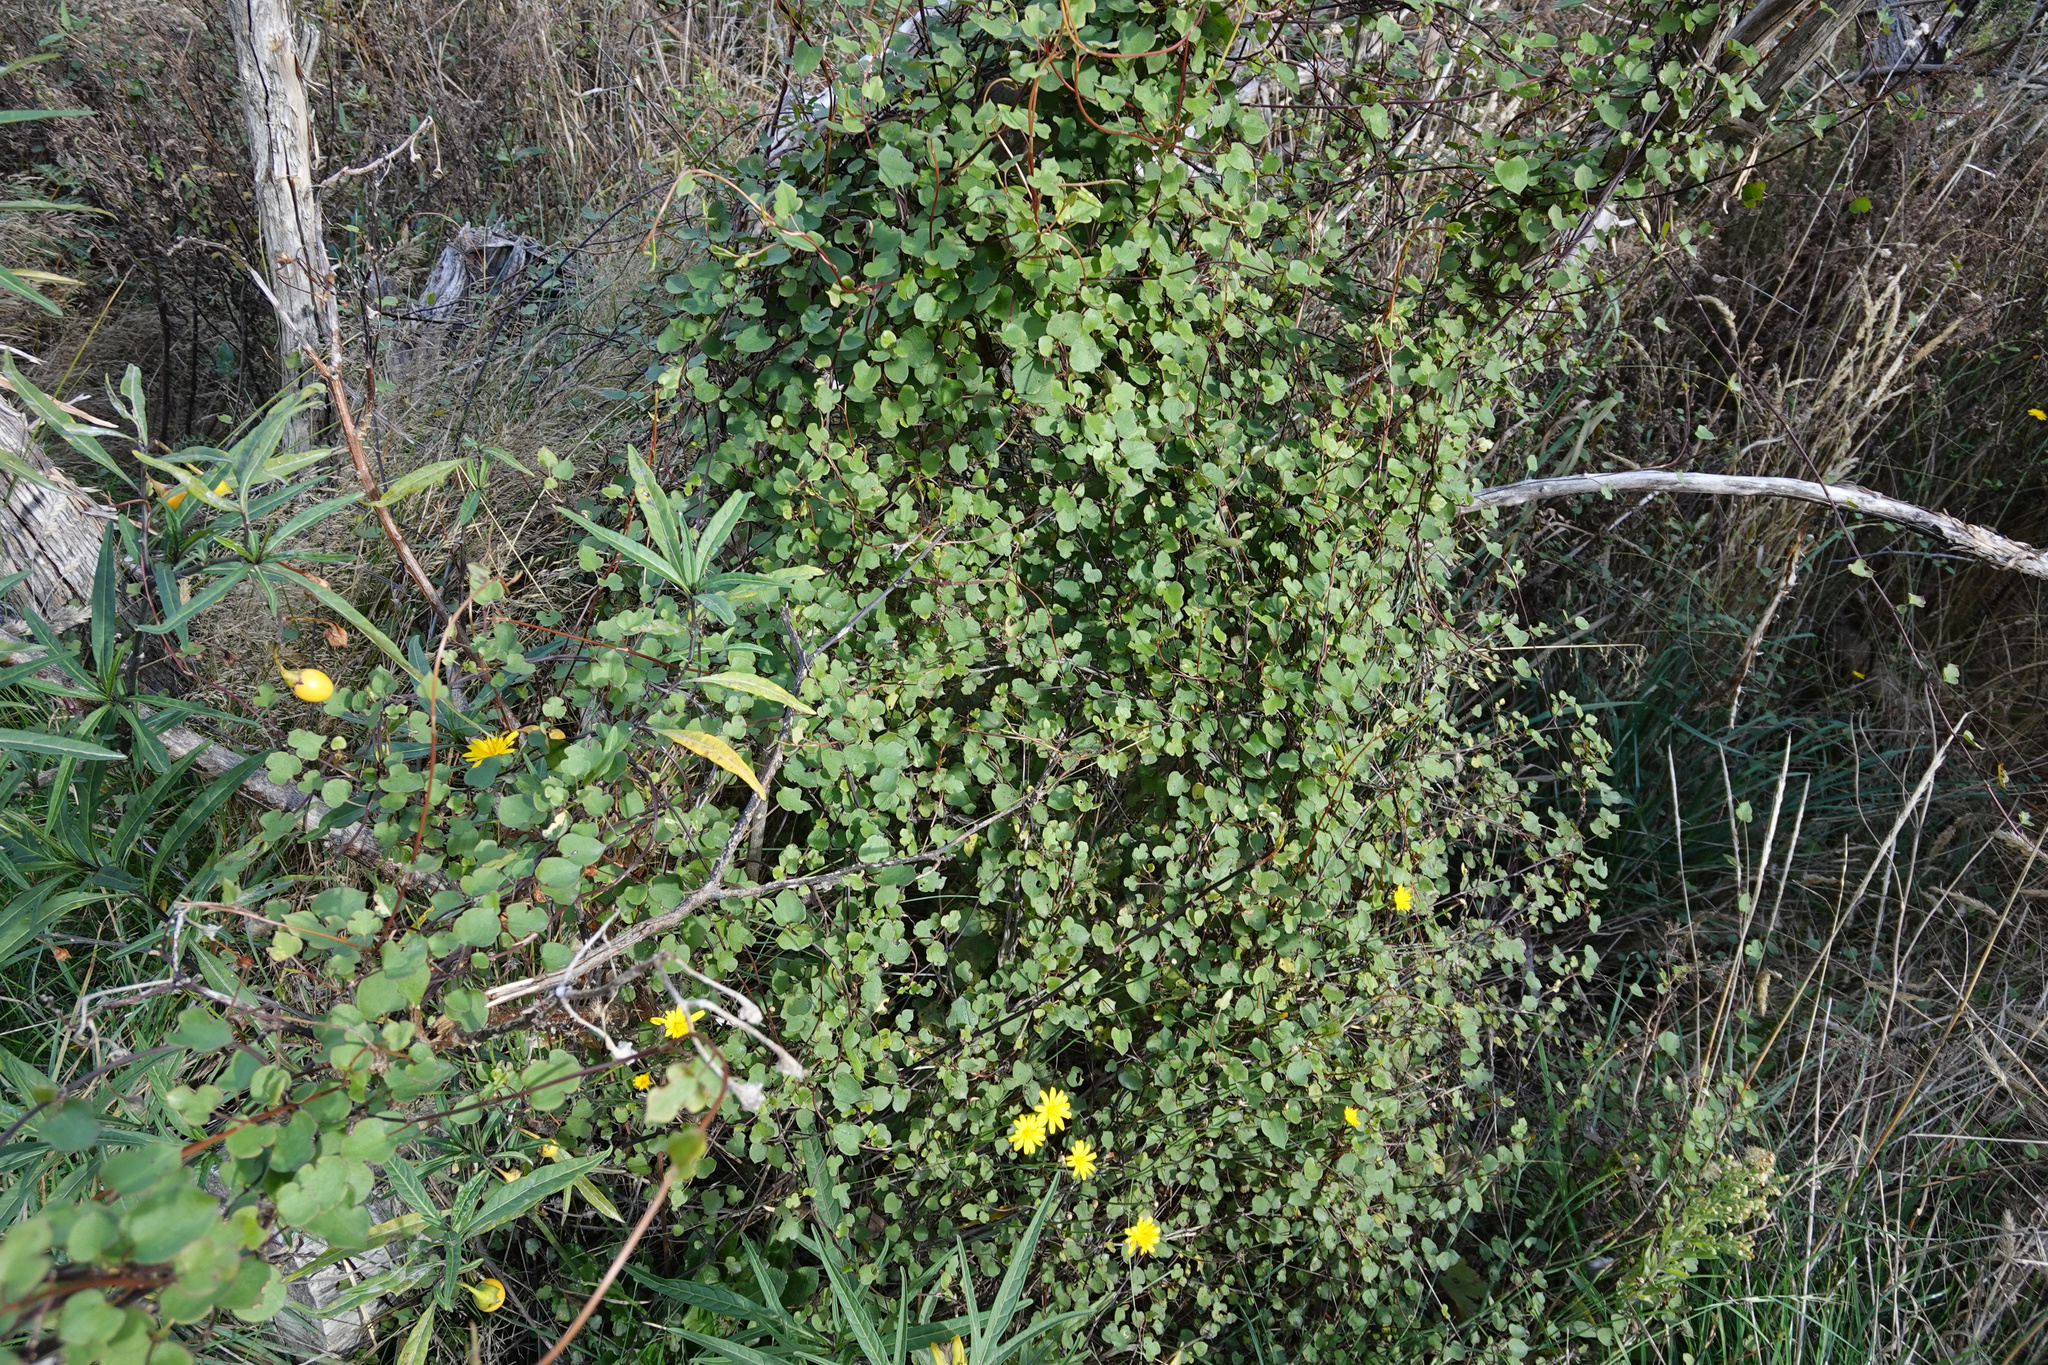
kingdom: Plantae
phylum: Tracheophyta
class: Magnoliopsida
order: Caryophyllales
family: Polygonaceae
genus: Muehlenbeckia
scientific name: Muehlenbeckia australis
